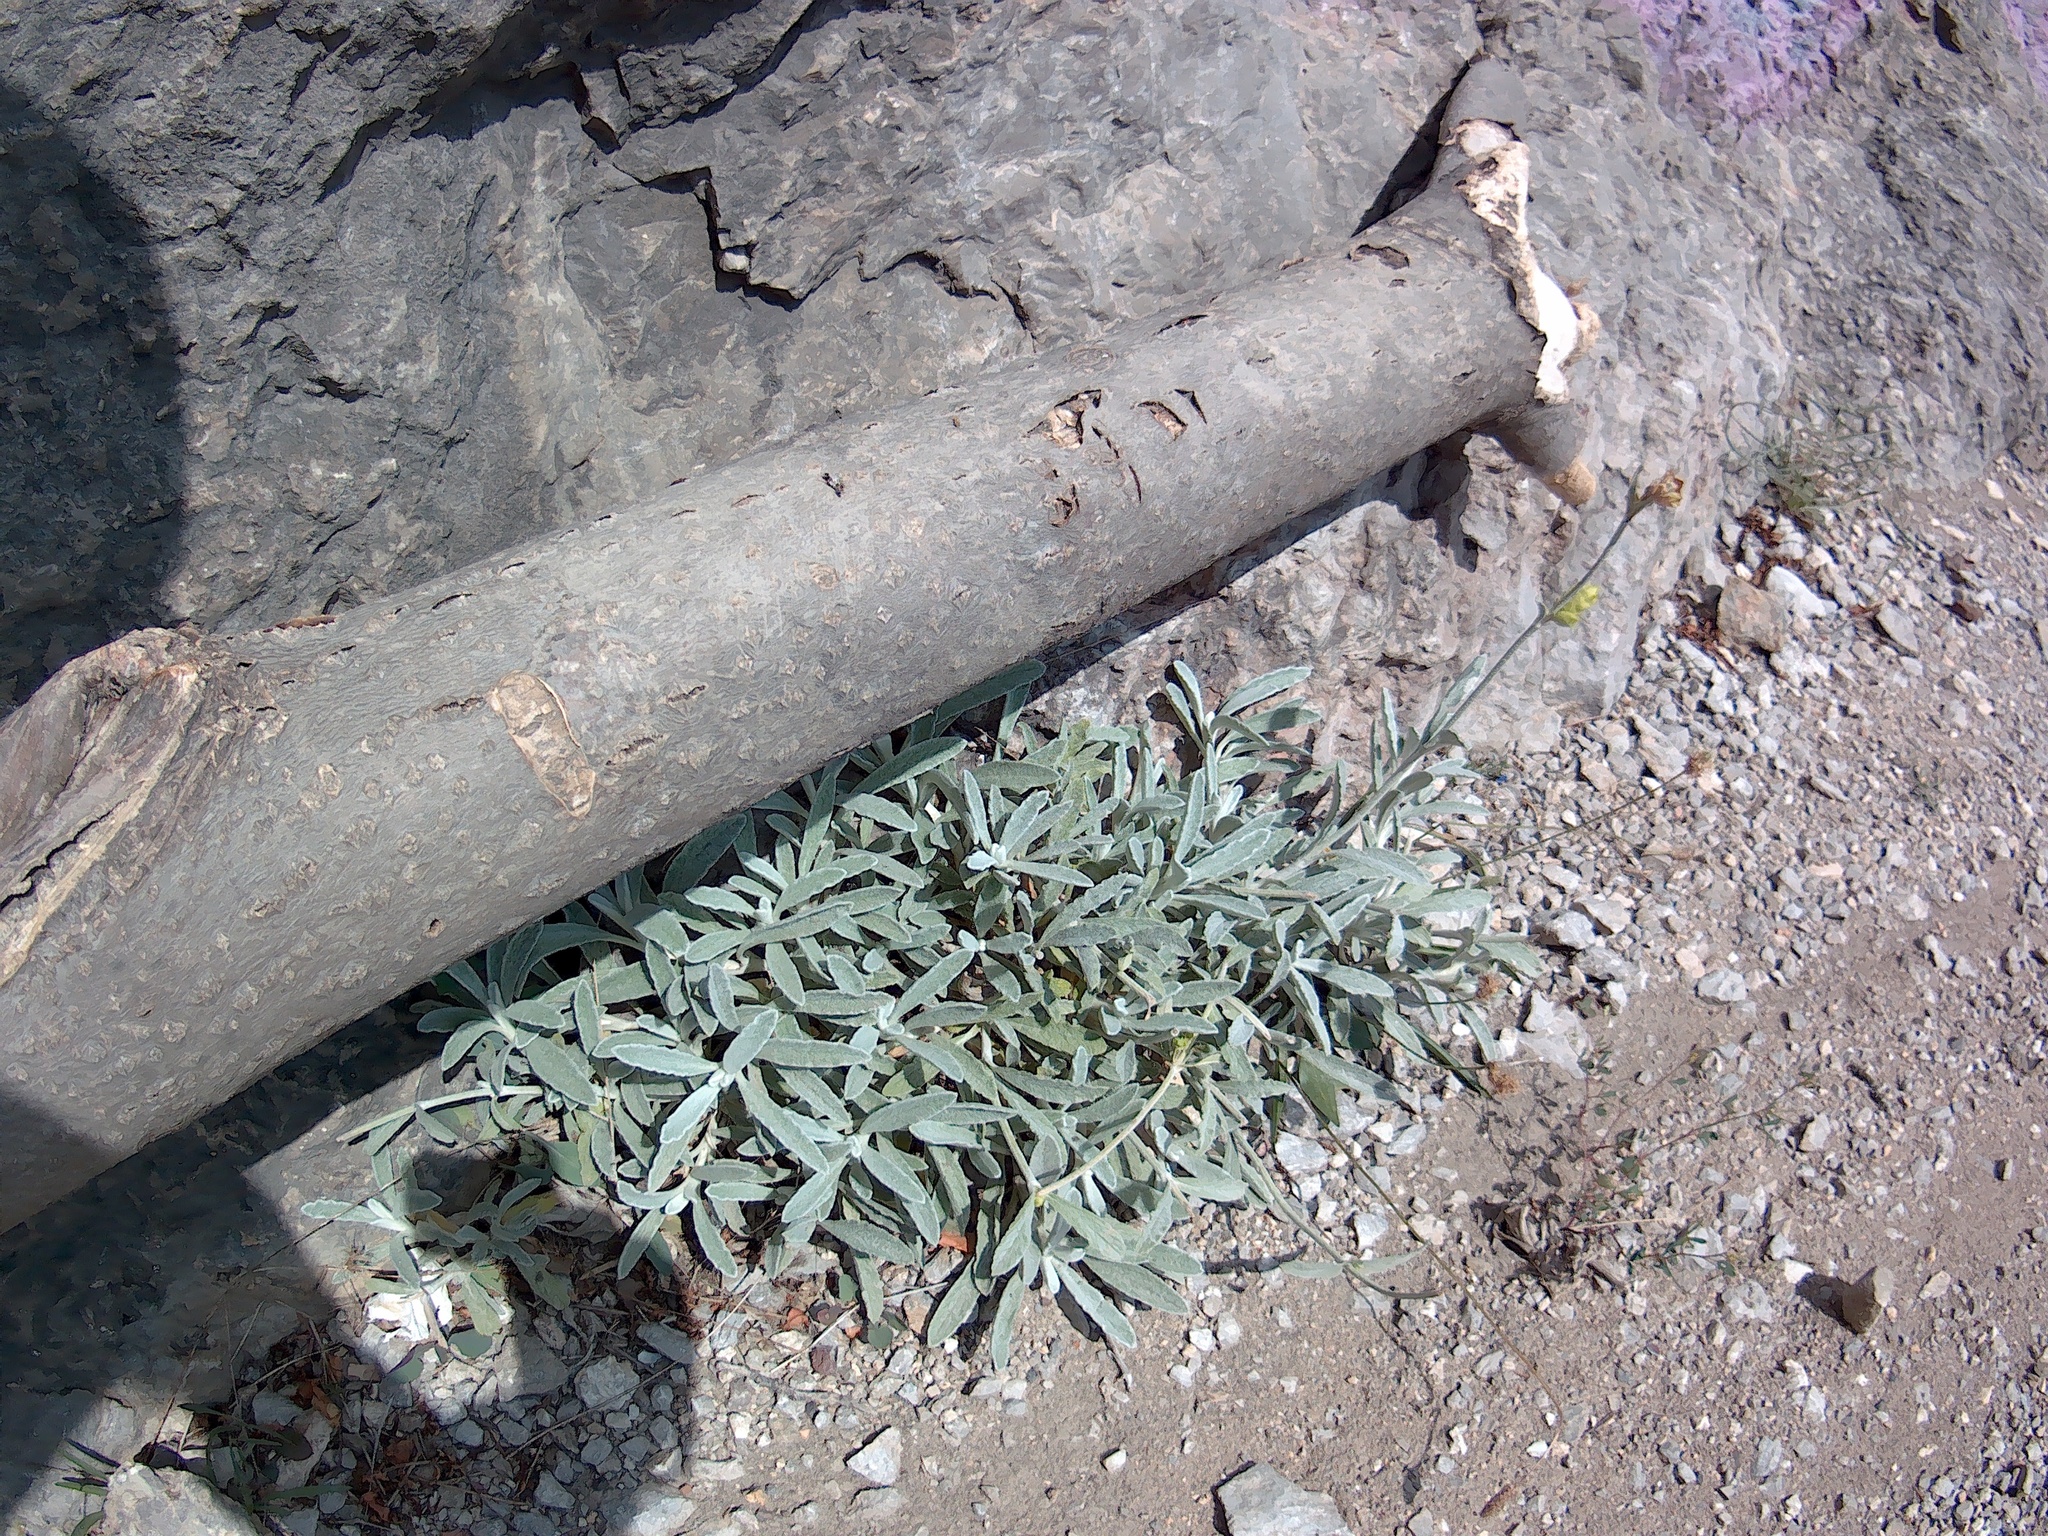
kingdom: Plantae
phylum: Tracheophyta
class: Magnoliopsida
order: Lamiales
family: Lamiaceae
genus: Sideritis
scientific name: Sideritis taurica
